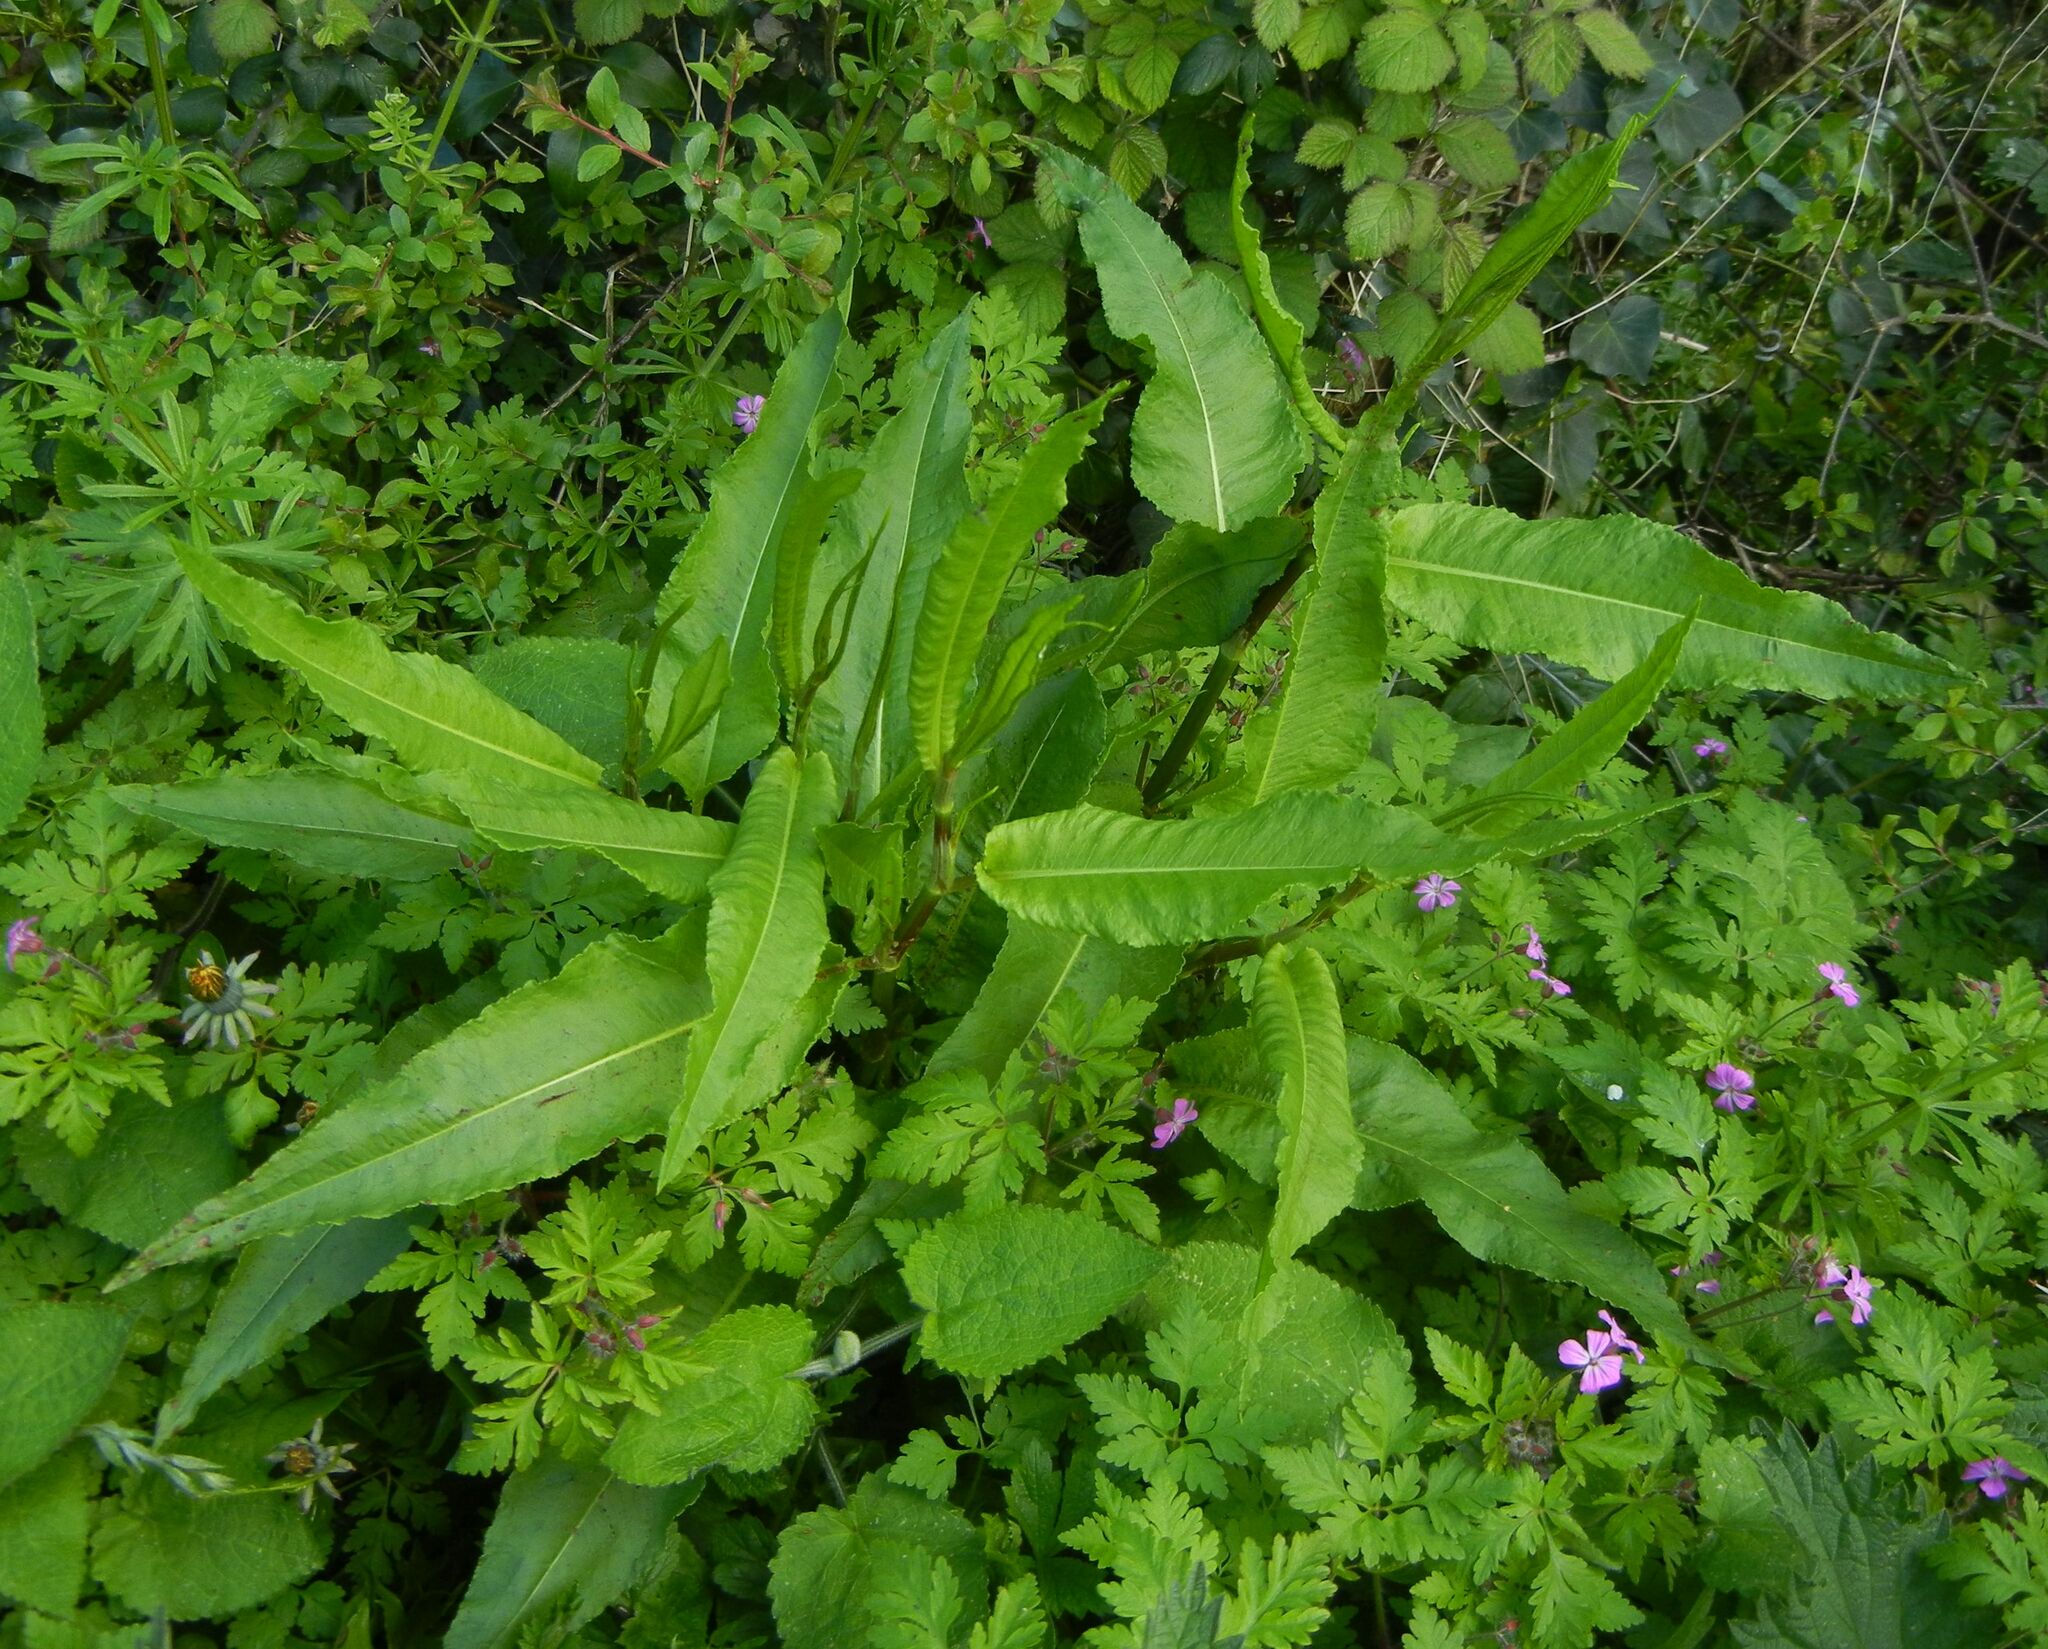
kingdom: Plantae
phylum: Tracheophyta
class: Magnoliopsida
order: Caryophyllales
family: Polygonaceae
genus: Rumex
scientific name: Rumex sanguineus
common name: Wood dock
